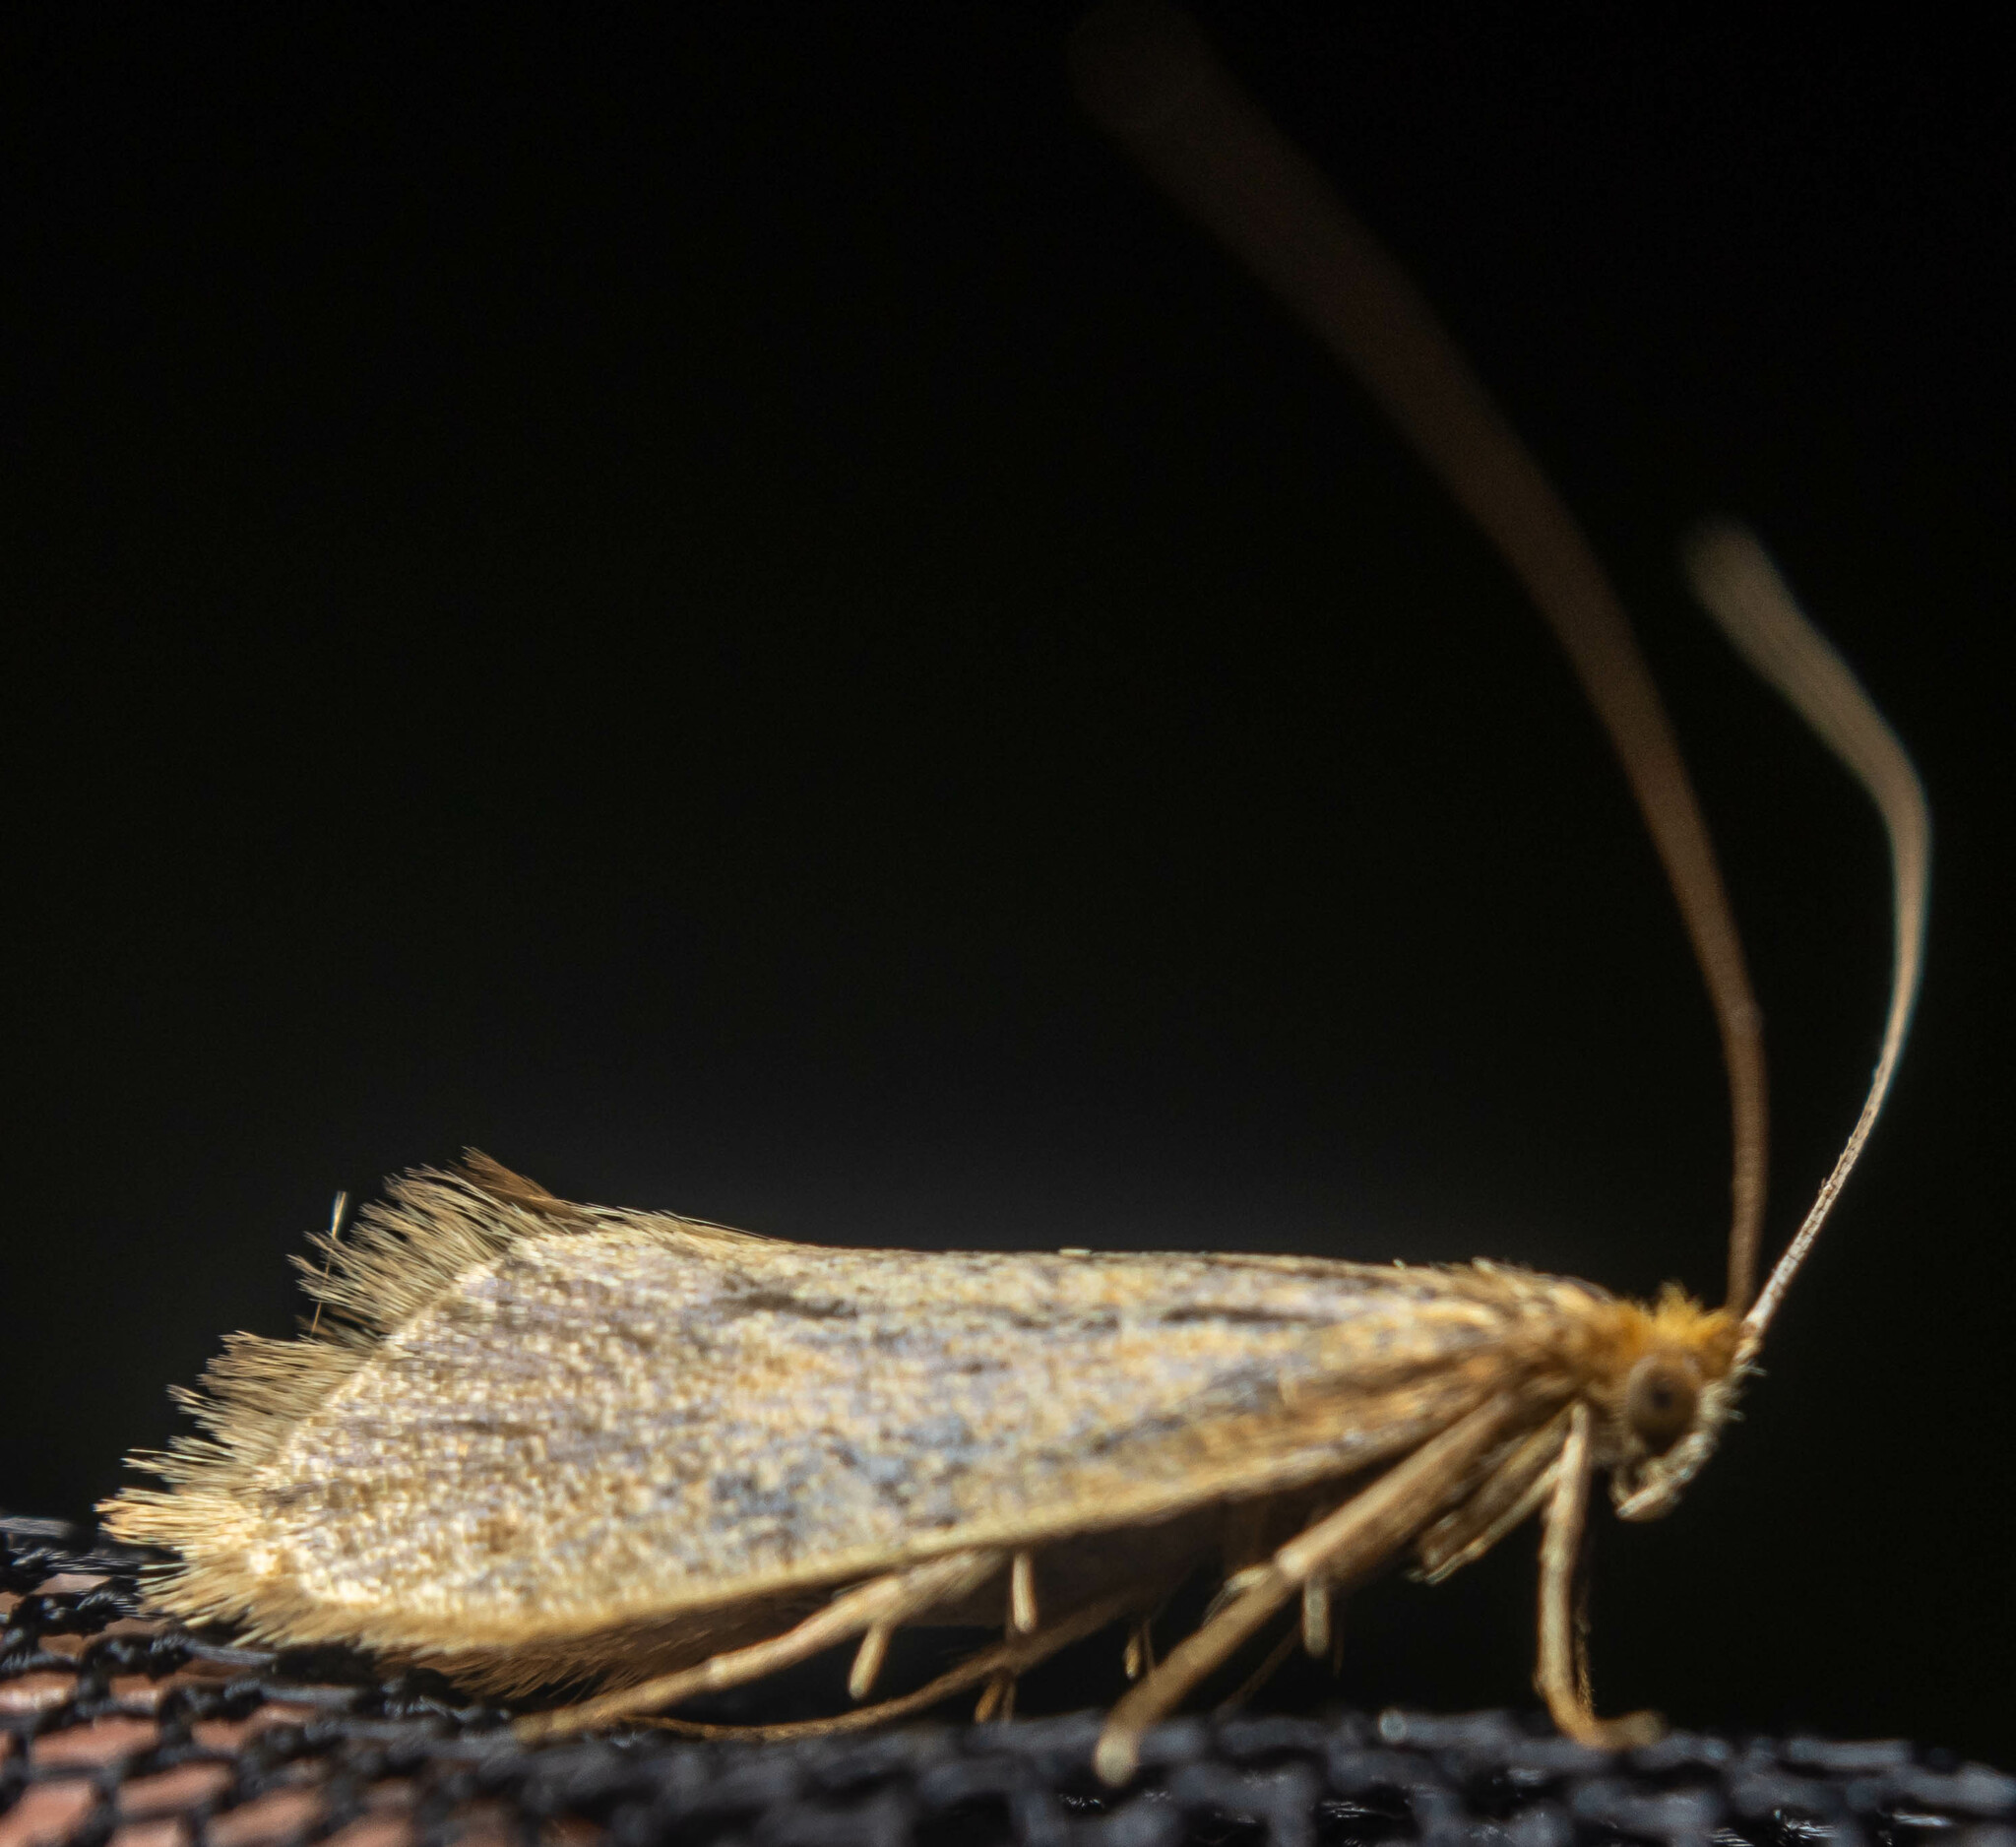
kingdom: Animalia
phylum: Arthropoda
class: Insecta
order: Lepidoptera
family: Adelidae
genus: Nematopogon
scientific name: Nematopogon swammerdamella
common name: Large long-horn
